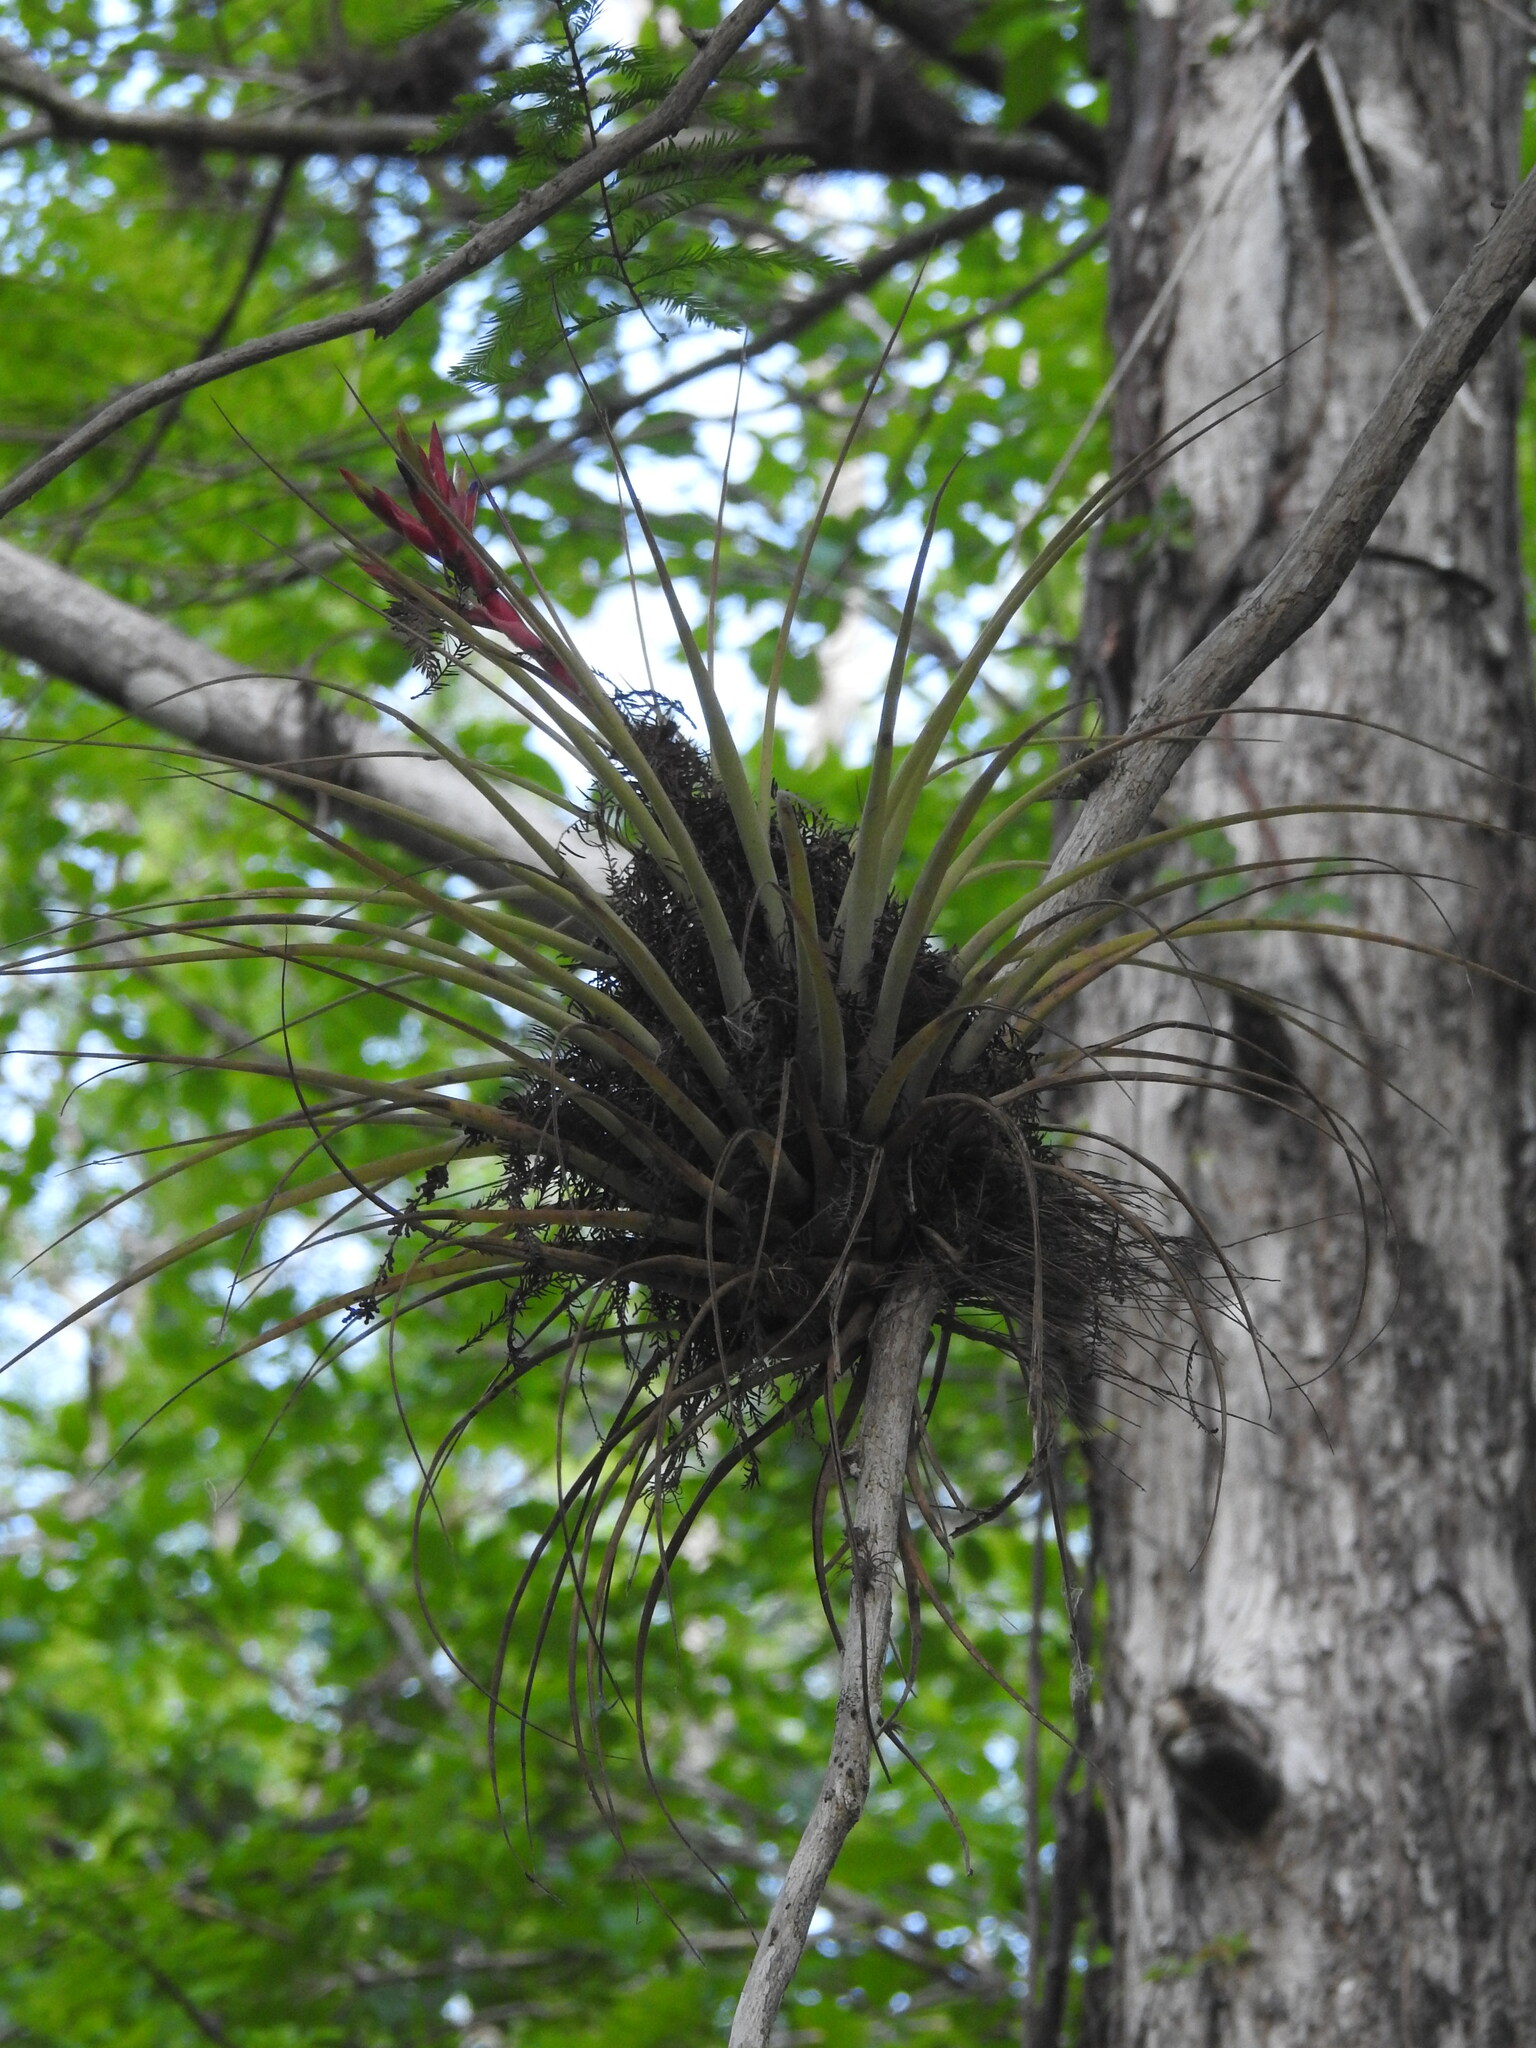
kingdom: Plantae
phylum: Tracheophyta
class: Liliopsida
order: Poales
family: Bromeliaceae
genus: Tillandsia
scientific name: Tillandsia fasciculata
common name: Giant airplant
